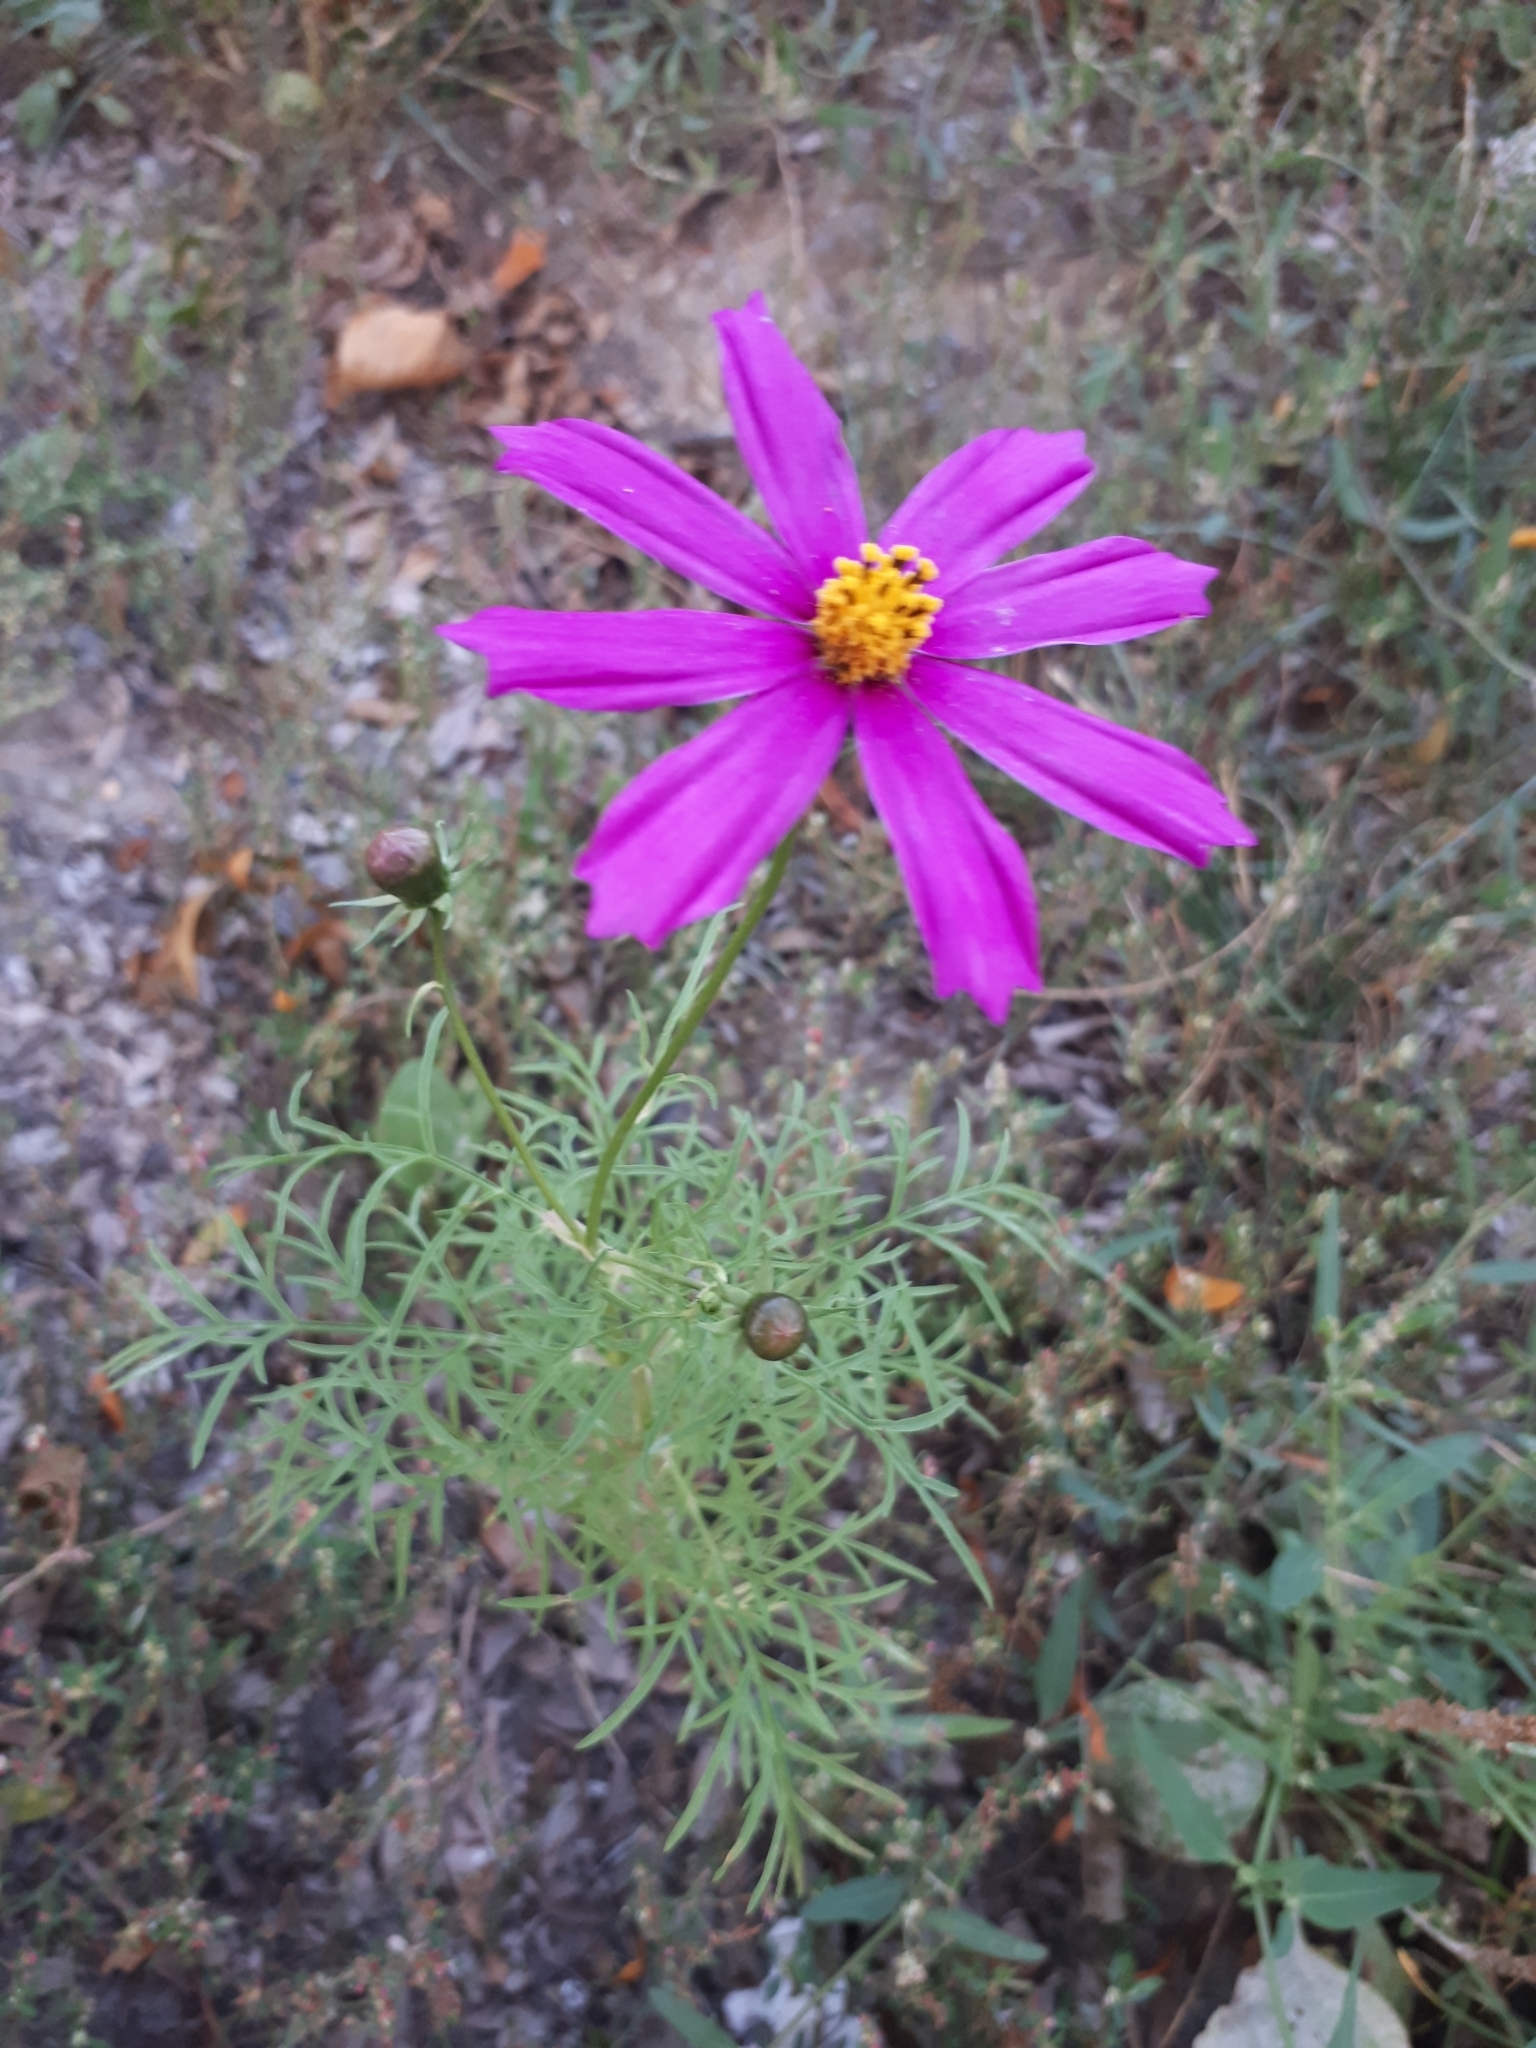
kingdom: Plantae
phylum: Tracheophyta
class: Magnoliopsida
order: Asterales
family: Asteraceae
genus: Cosmos
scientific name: Cosmos bipinnatus
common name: Garden cosmos
